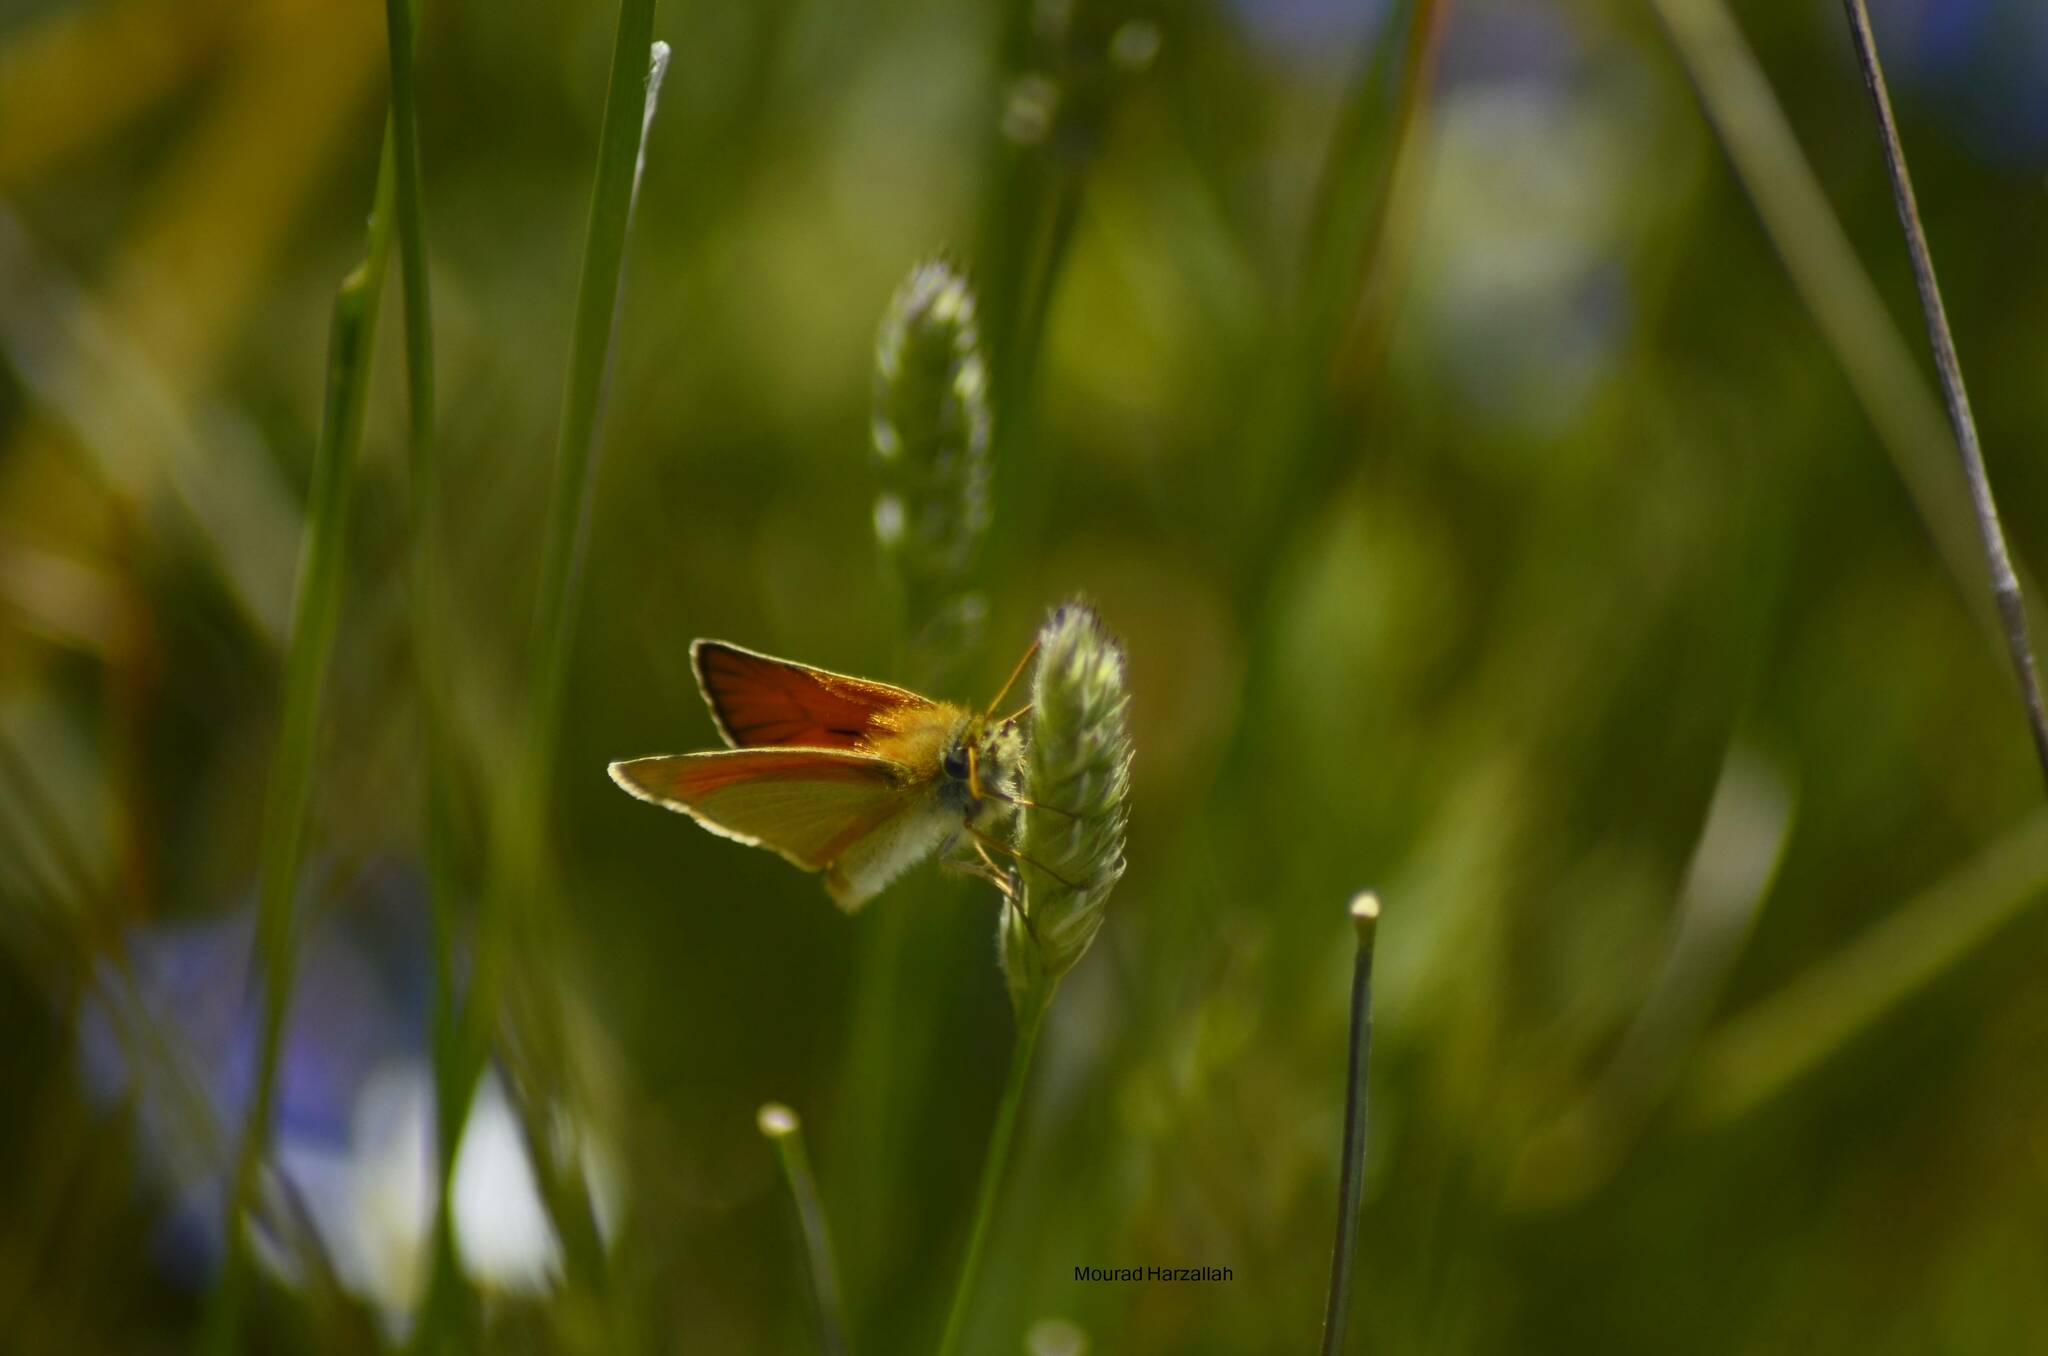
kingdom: Animalia
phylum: Arthropoda
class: Insecta
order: Lepidoptera
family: Hesperiidae
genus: Thymelicus
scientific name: Thymelicus lineola
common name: Essex skipper
